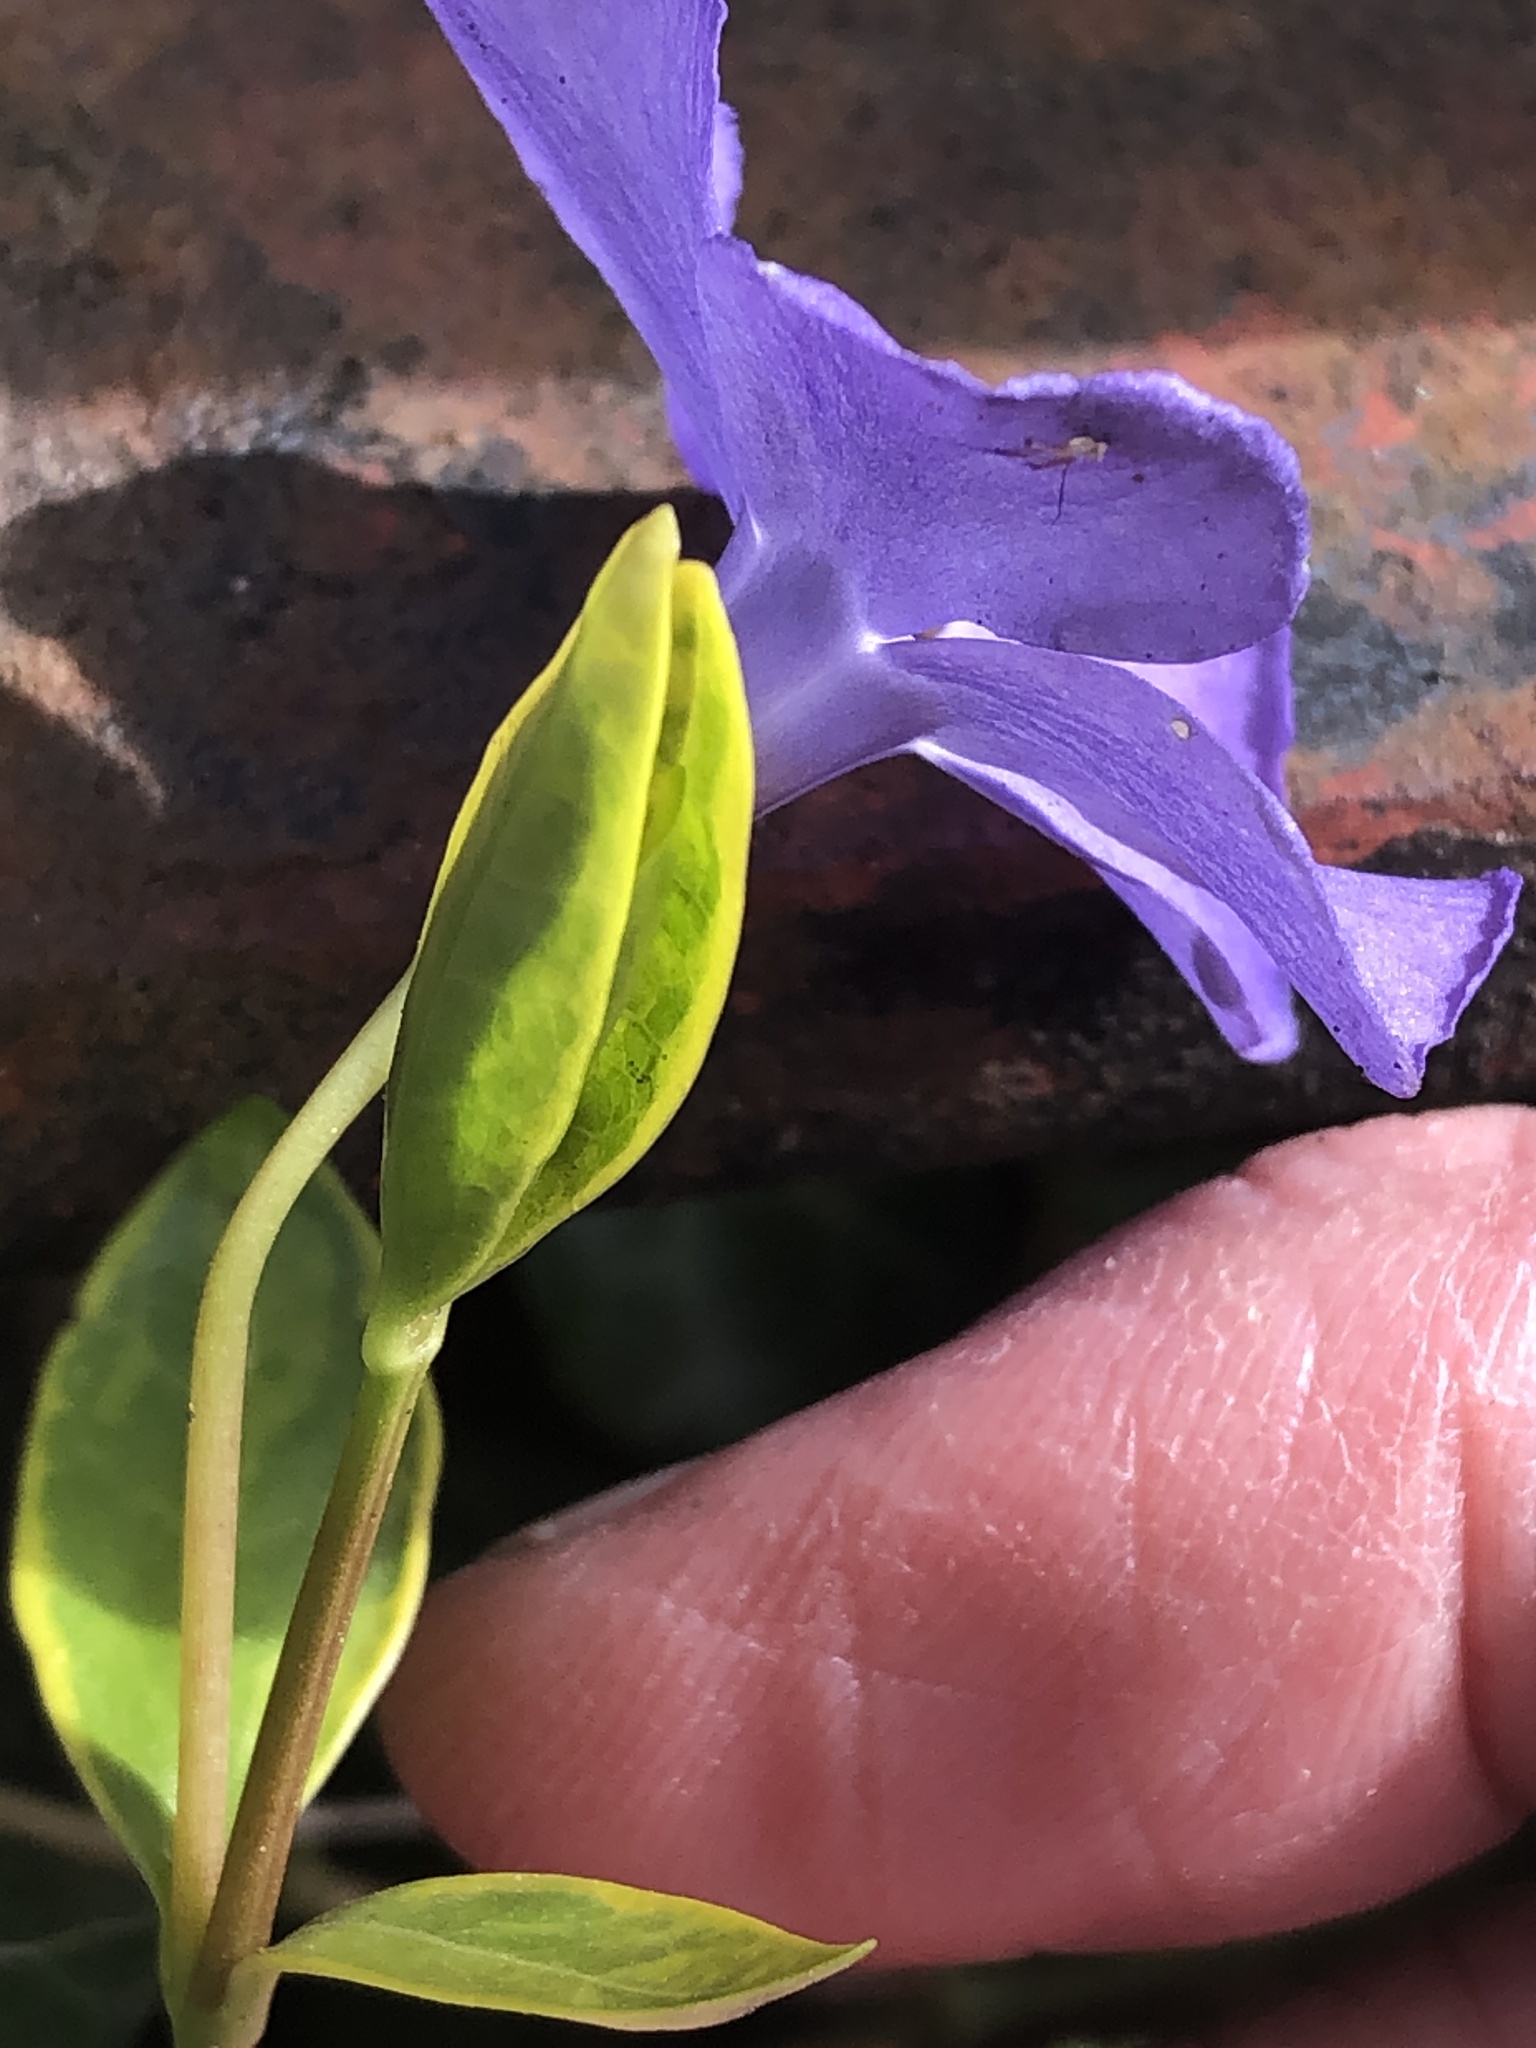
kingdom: Plantae
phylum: Tracheophyta
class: Magnoliopsida
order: Gentianales
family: Apocynaceae
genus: Vinca
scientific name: Vinca minor
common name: Lesser periwinkle
